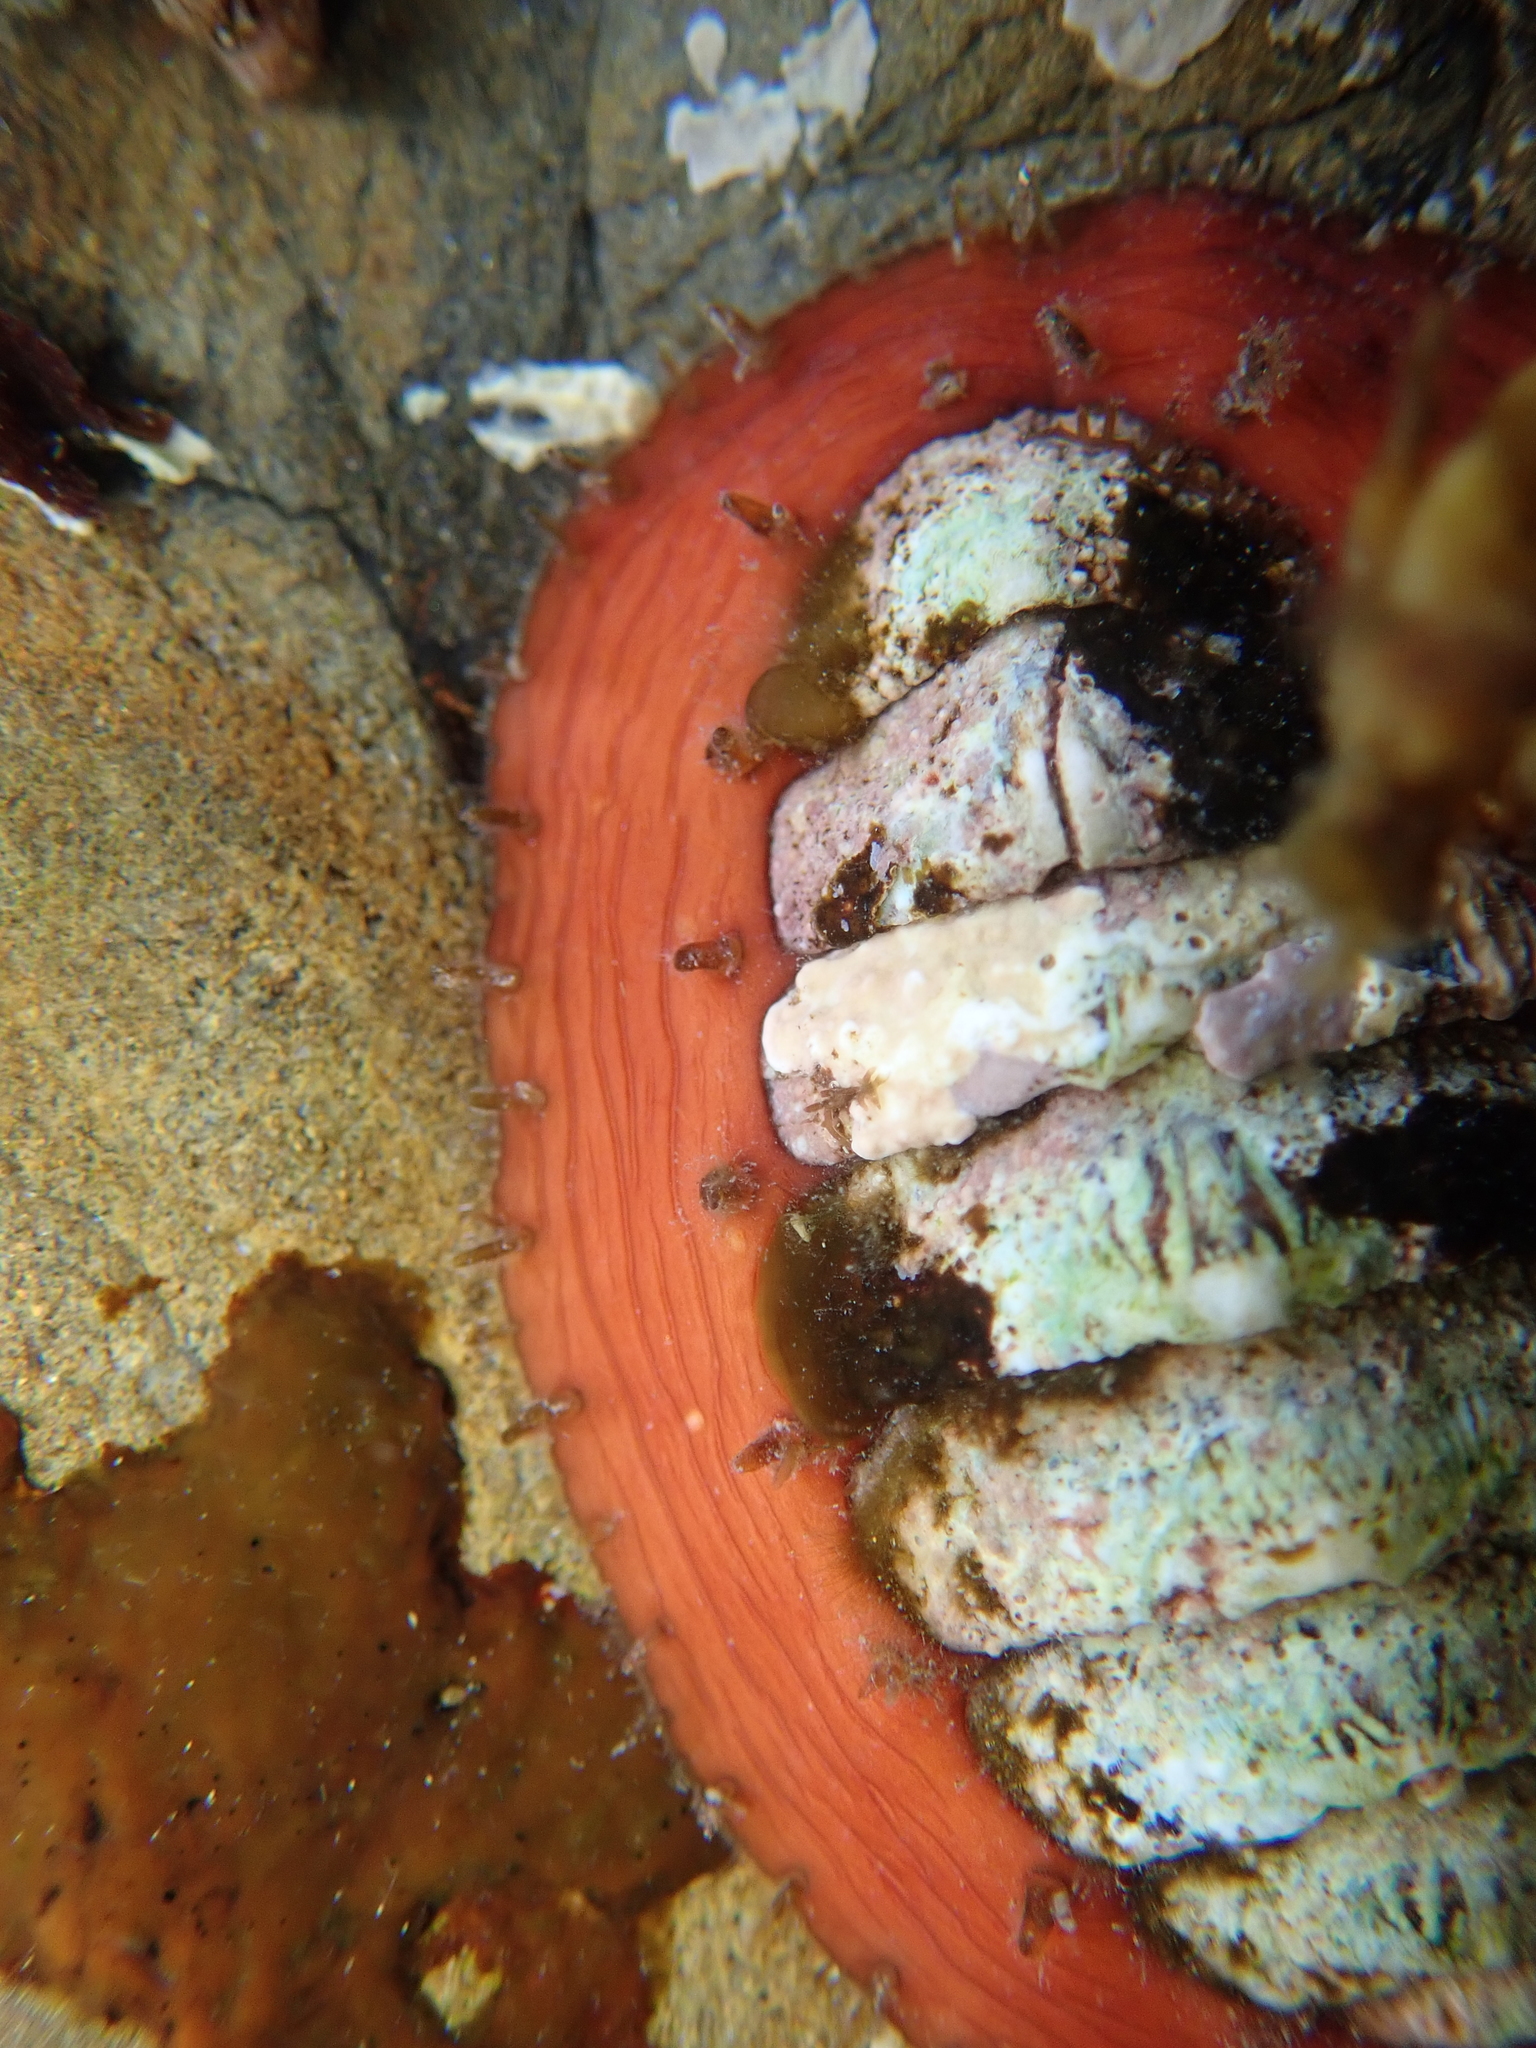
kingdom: Animalia
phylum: Mollusca
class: Polyplacophora
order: Chitonida
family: Mopaliidae
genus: Plaxiphora
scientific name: Plaxiphora biramosa
